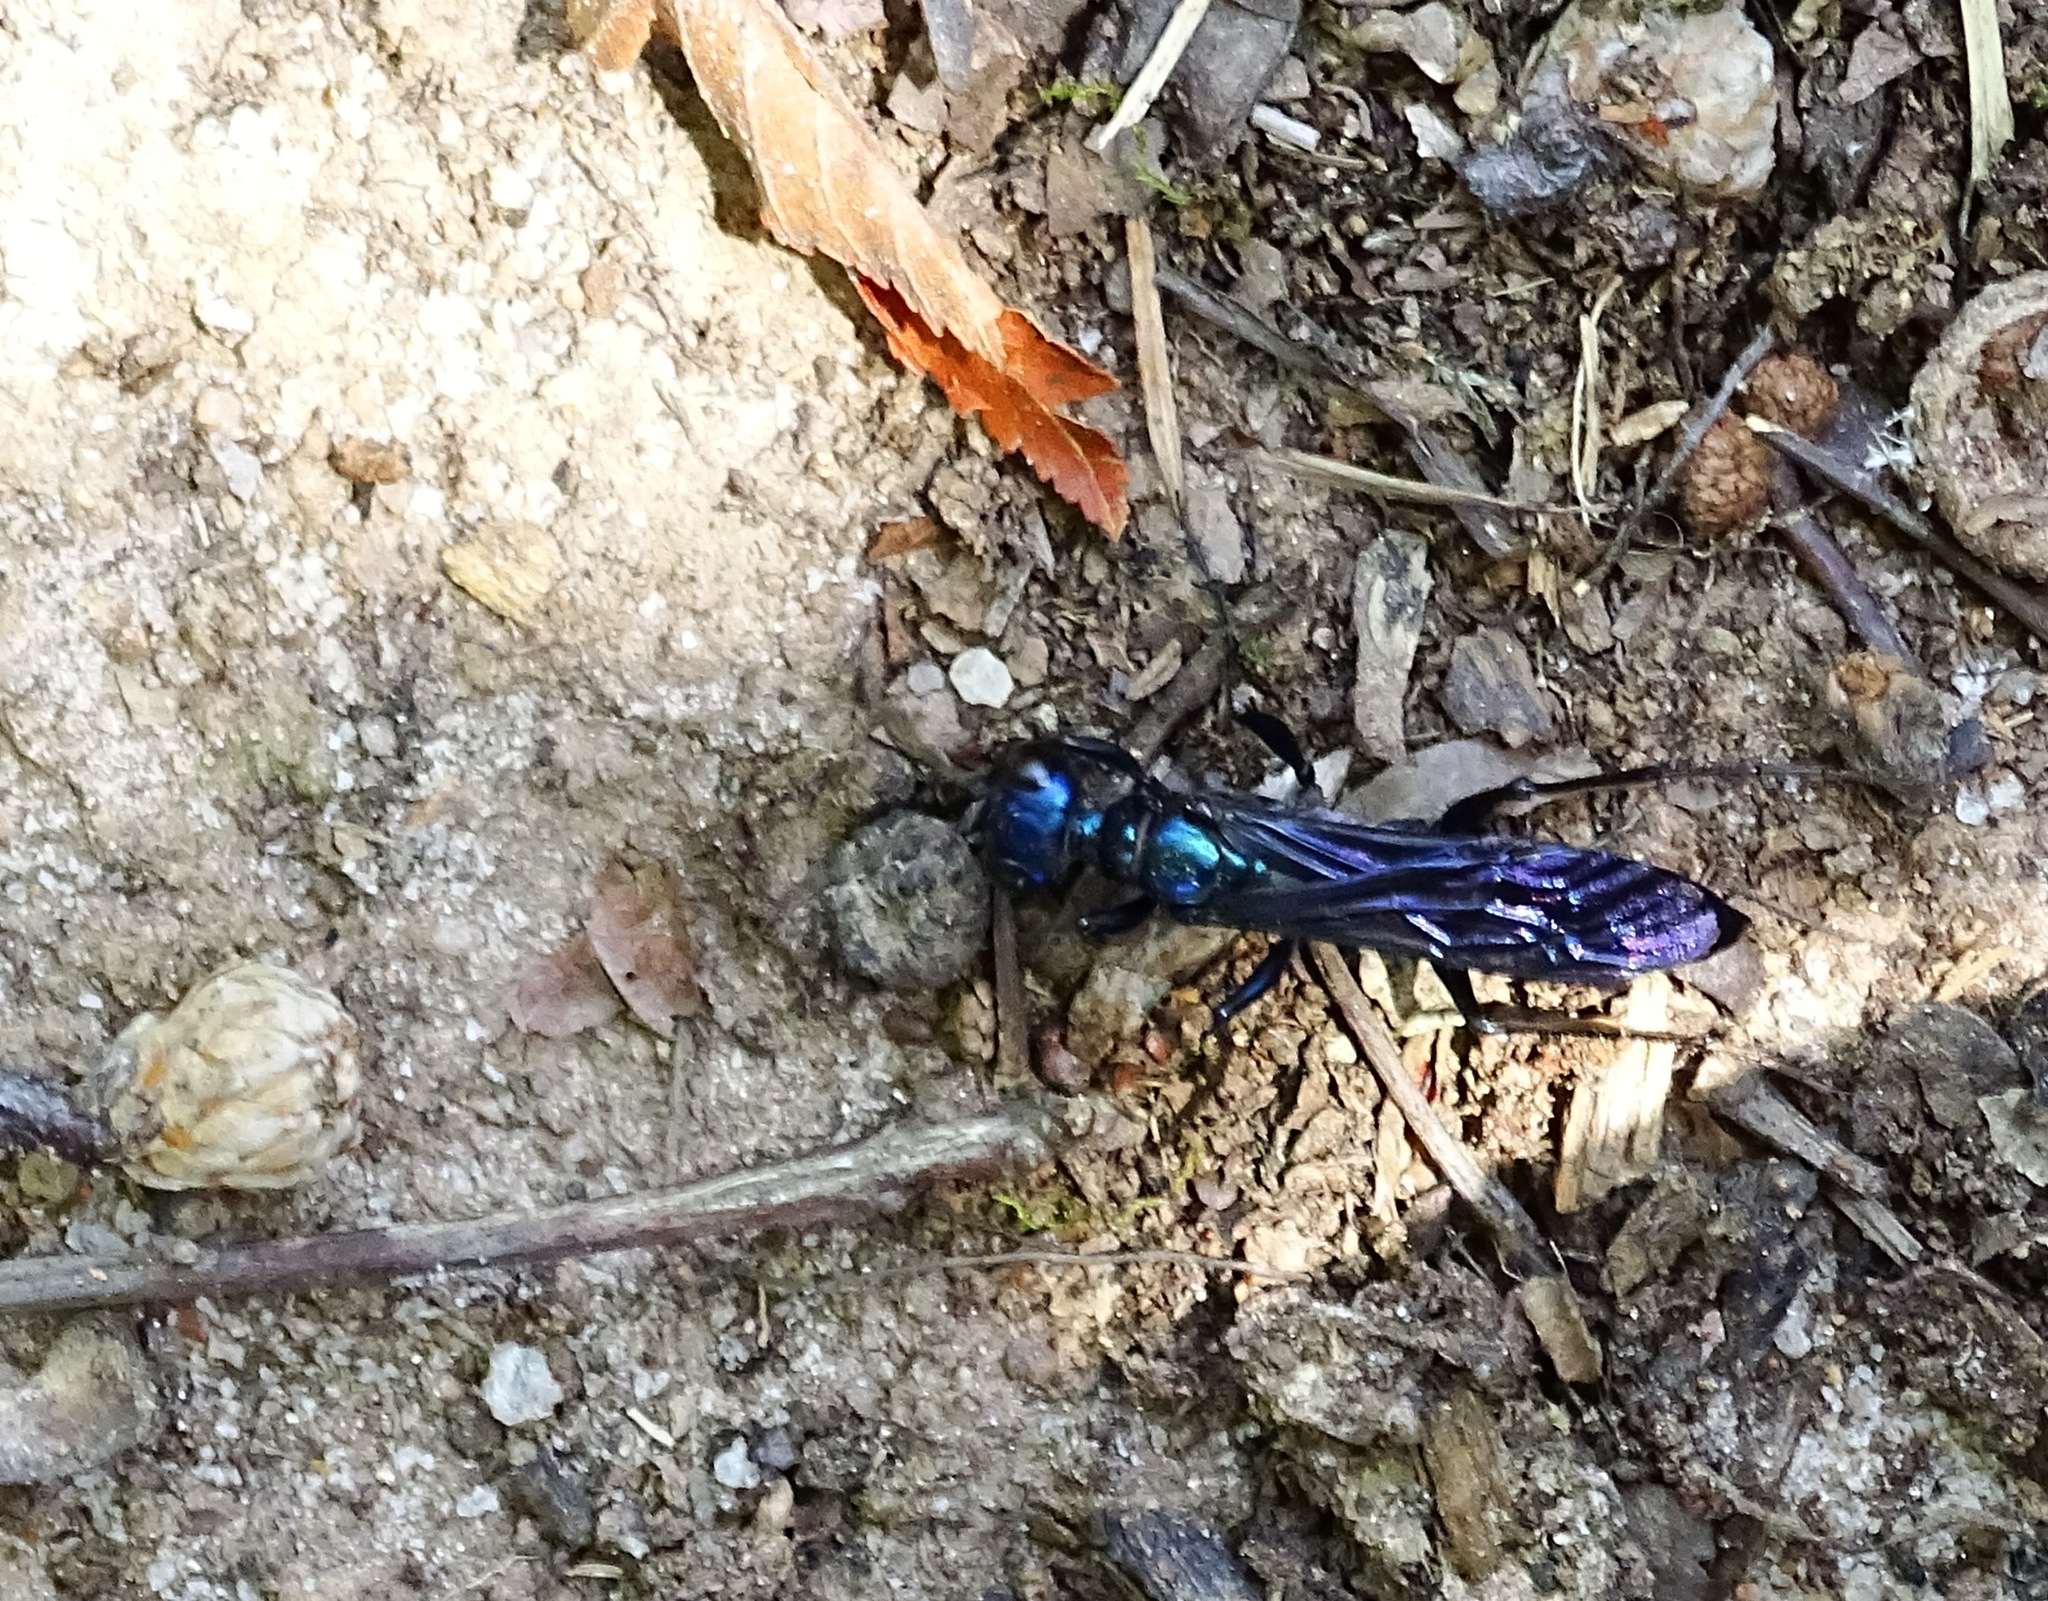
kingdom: Animalia
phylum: Arthropoda
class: Insecta
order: Hymenoptera
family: Sphecidae
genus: Chlorion
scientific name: Chlorion aerarium
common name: Steel-blue cricket hunter
